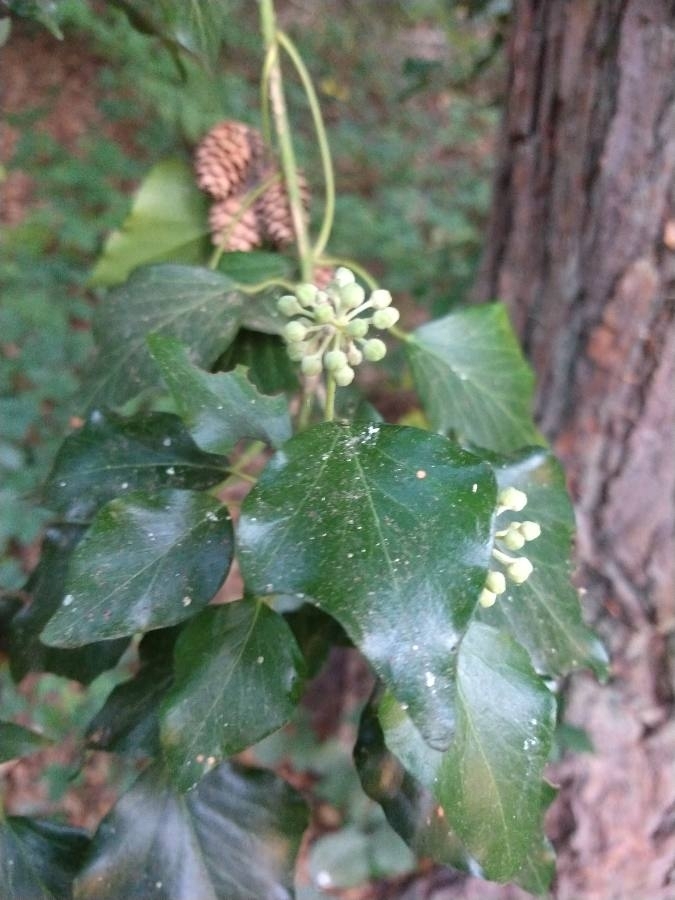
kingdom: Plantae
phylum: Tracheophyta
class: Magnoliopsida
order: Apiales
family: Araliaceae
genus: Hedera
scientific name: Hedera helix
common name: Ivy
